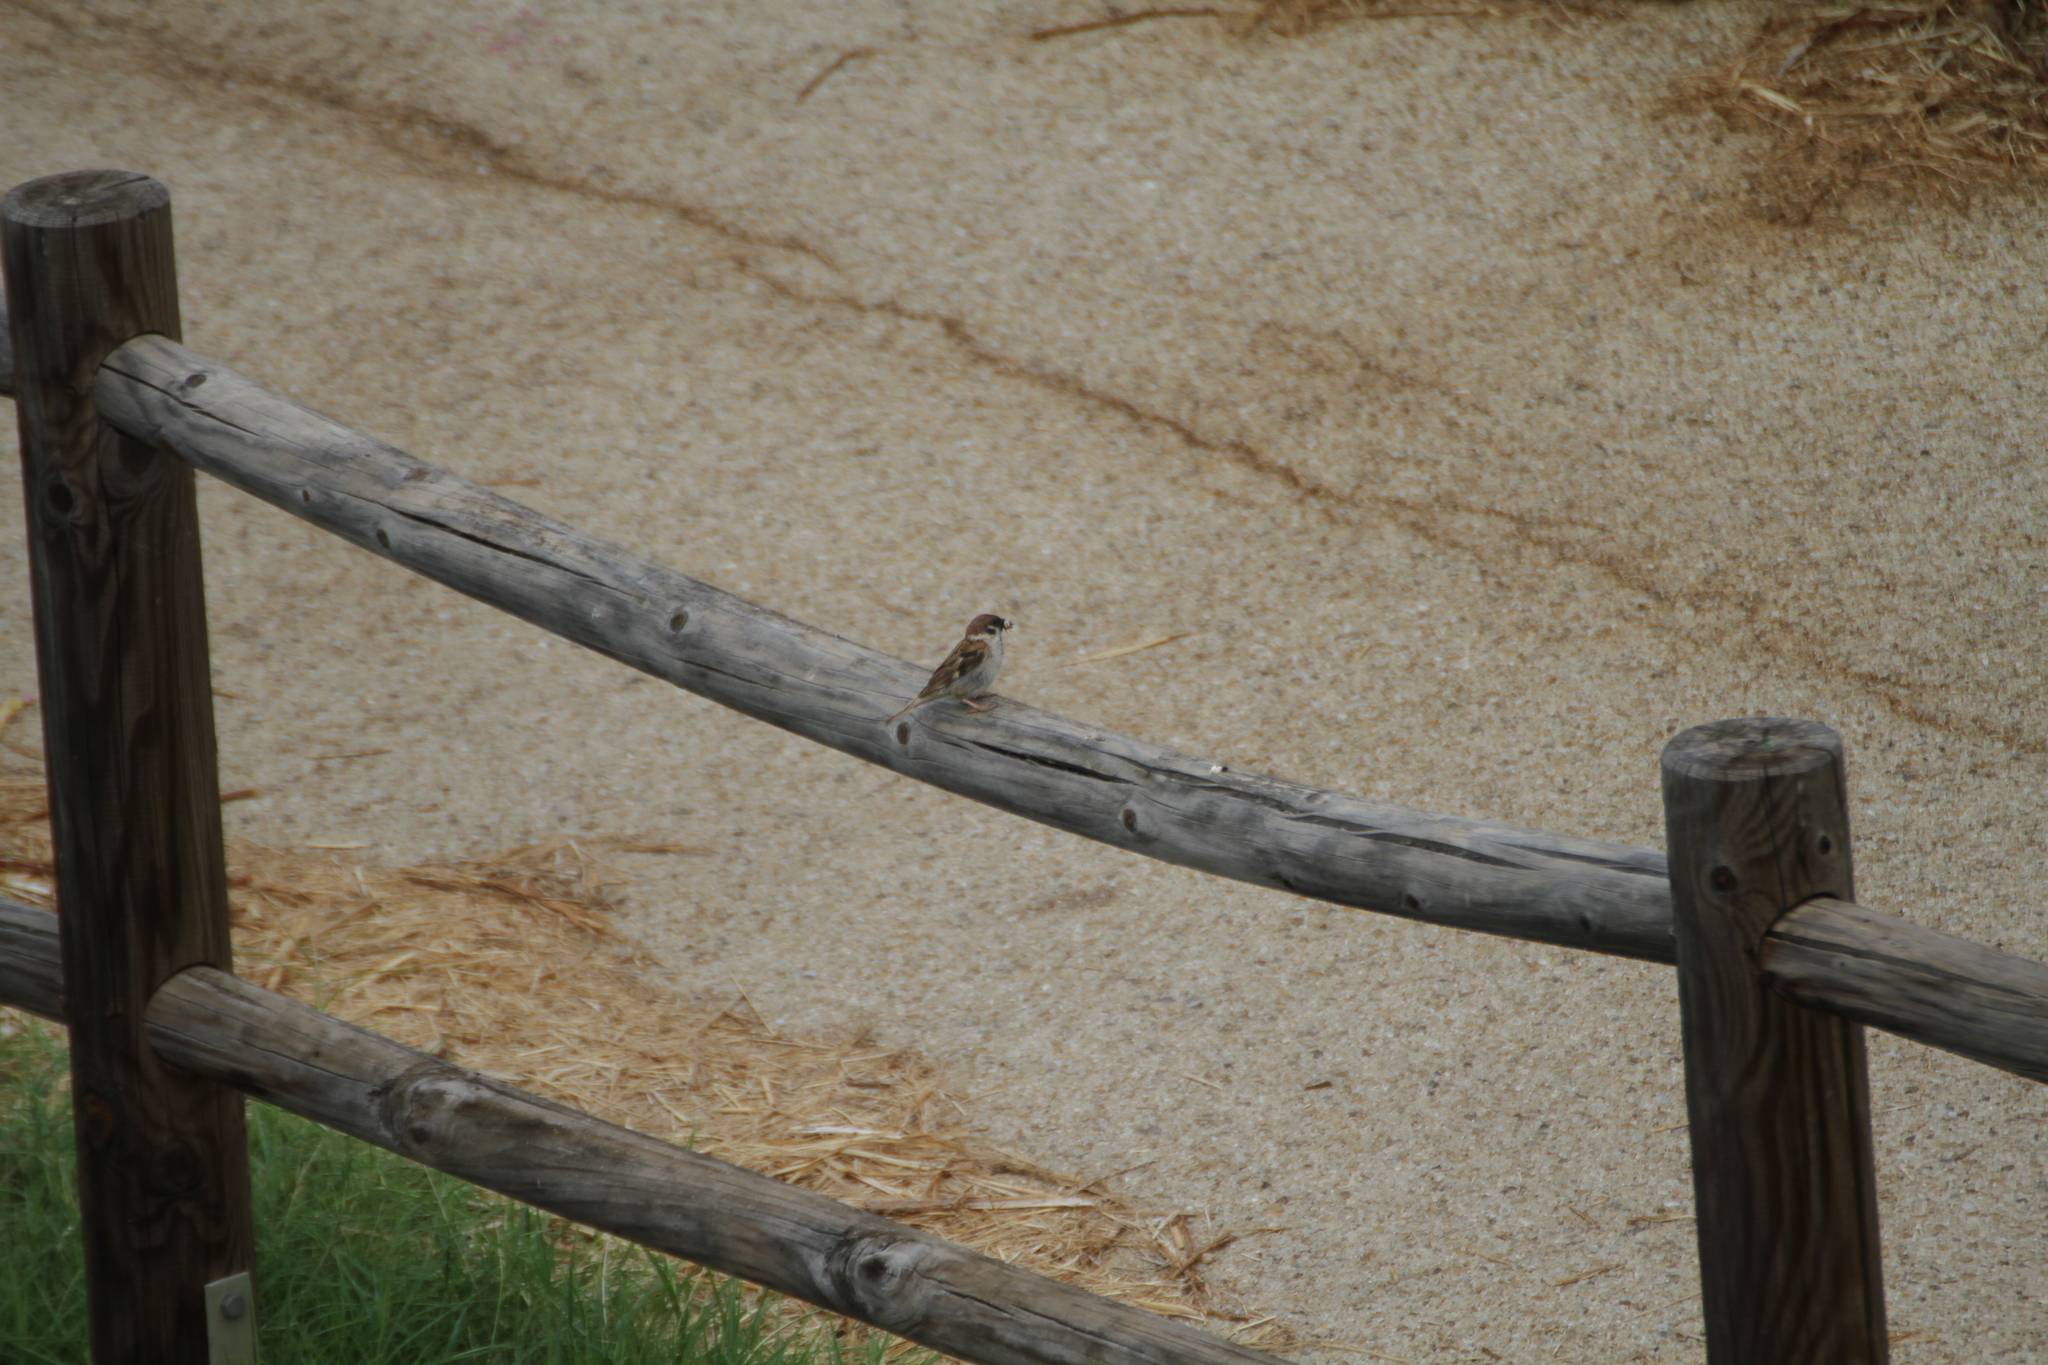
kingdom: Animalia
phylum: Chordata
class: Aves
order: Passeriformes
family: Passeridae
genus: Passer
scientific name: Passer montanus
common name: Eurasian tree sparrow
